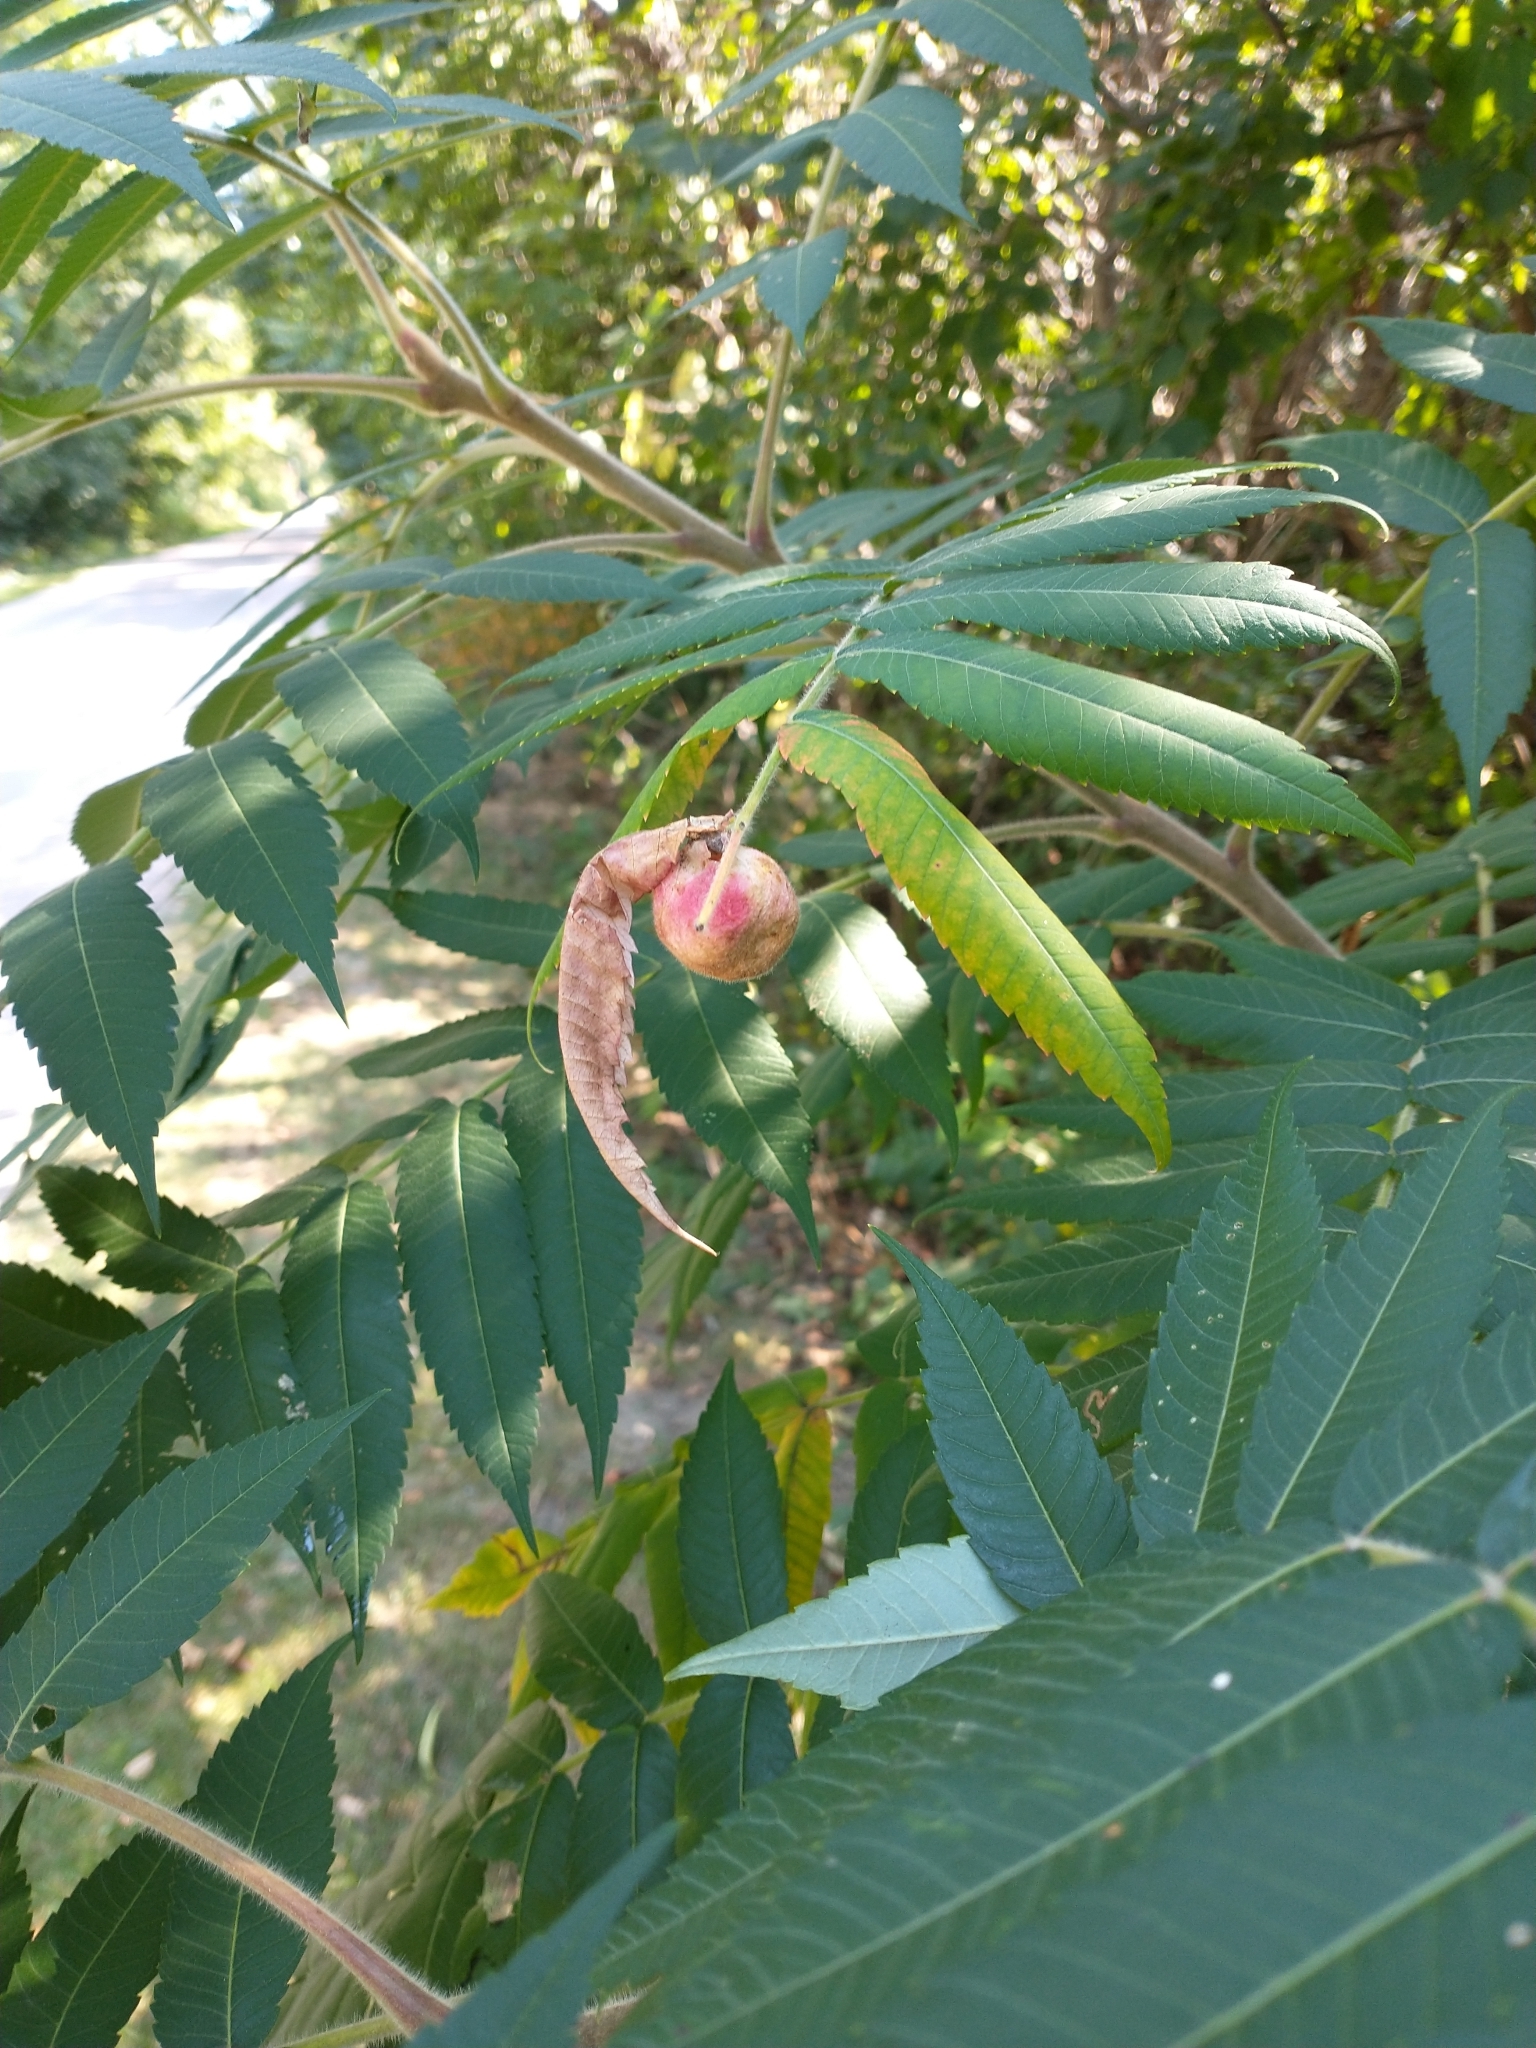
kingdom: Animalia
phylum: Arthropoda
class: Insecta
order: Hemiptera
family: Aphididae
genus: Melaphis
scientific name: Melaphis rhois
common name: Sumac gall aphid
